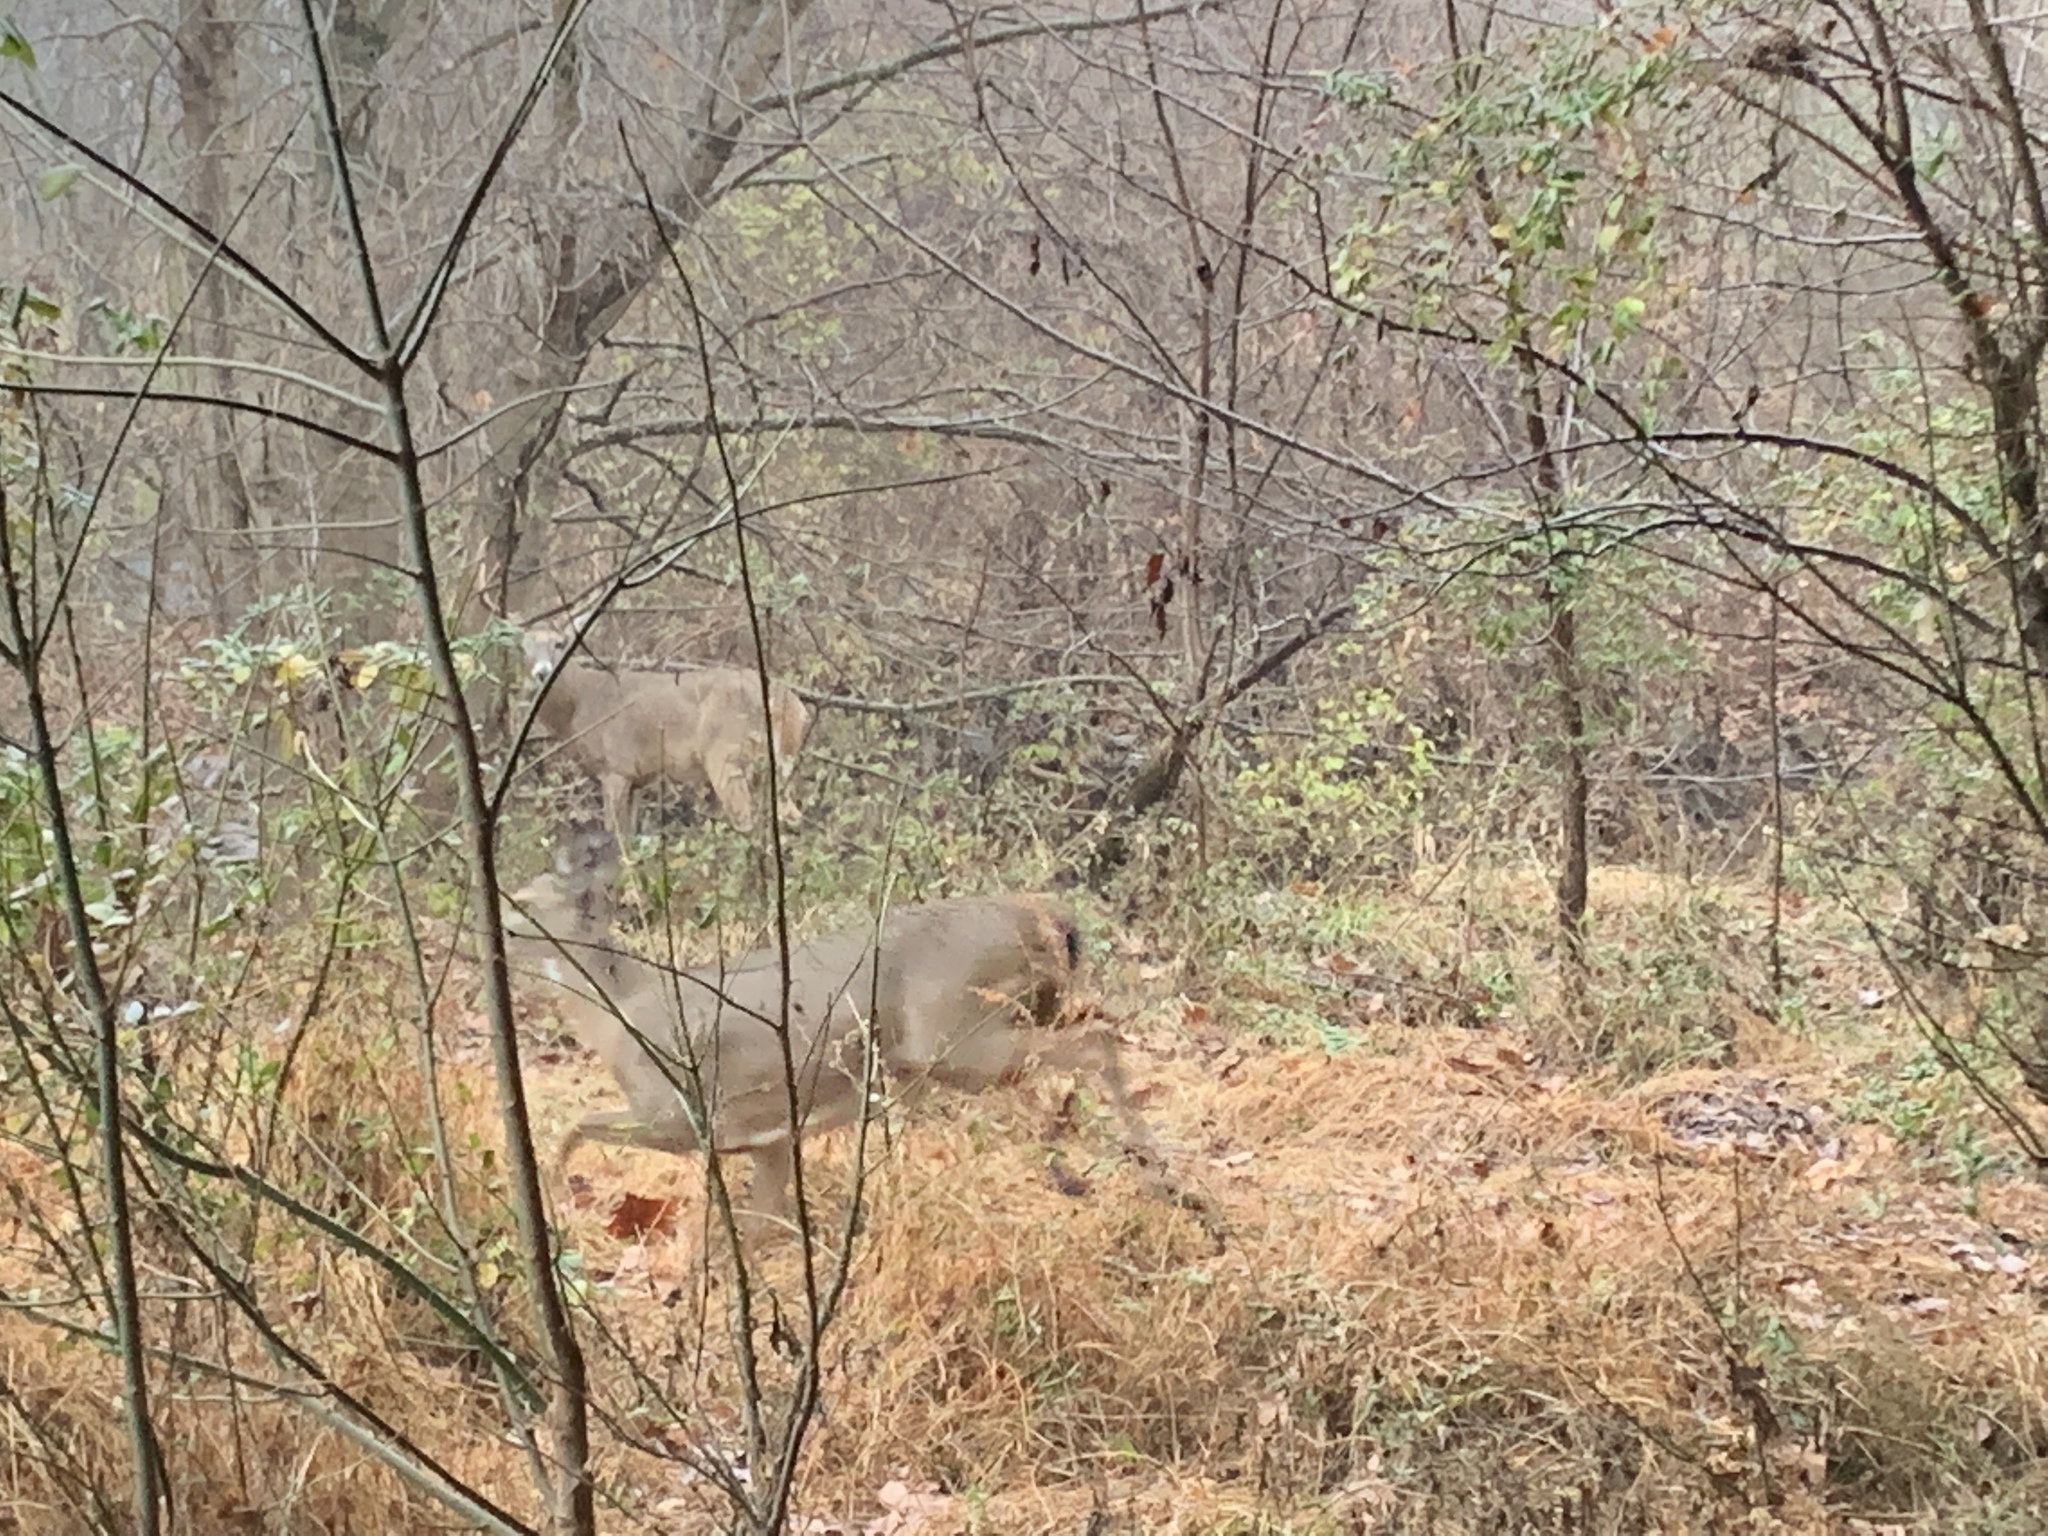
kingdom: Animalia
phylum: Chordata
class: Mammalia
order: Artiodactyla
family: Cervidae
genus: Odocoileus
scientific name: Odocoileus virginianus
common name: White-tailed deer
